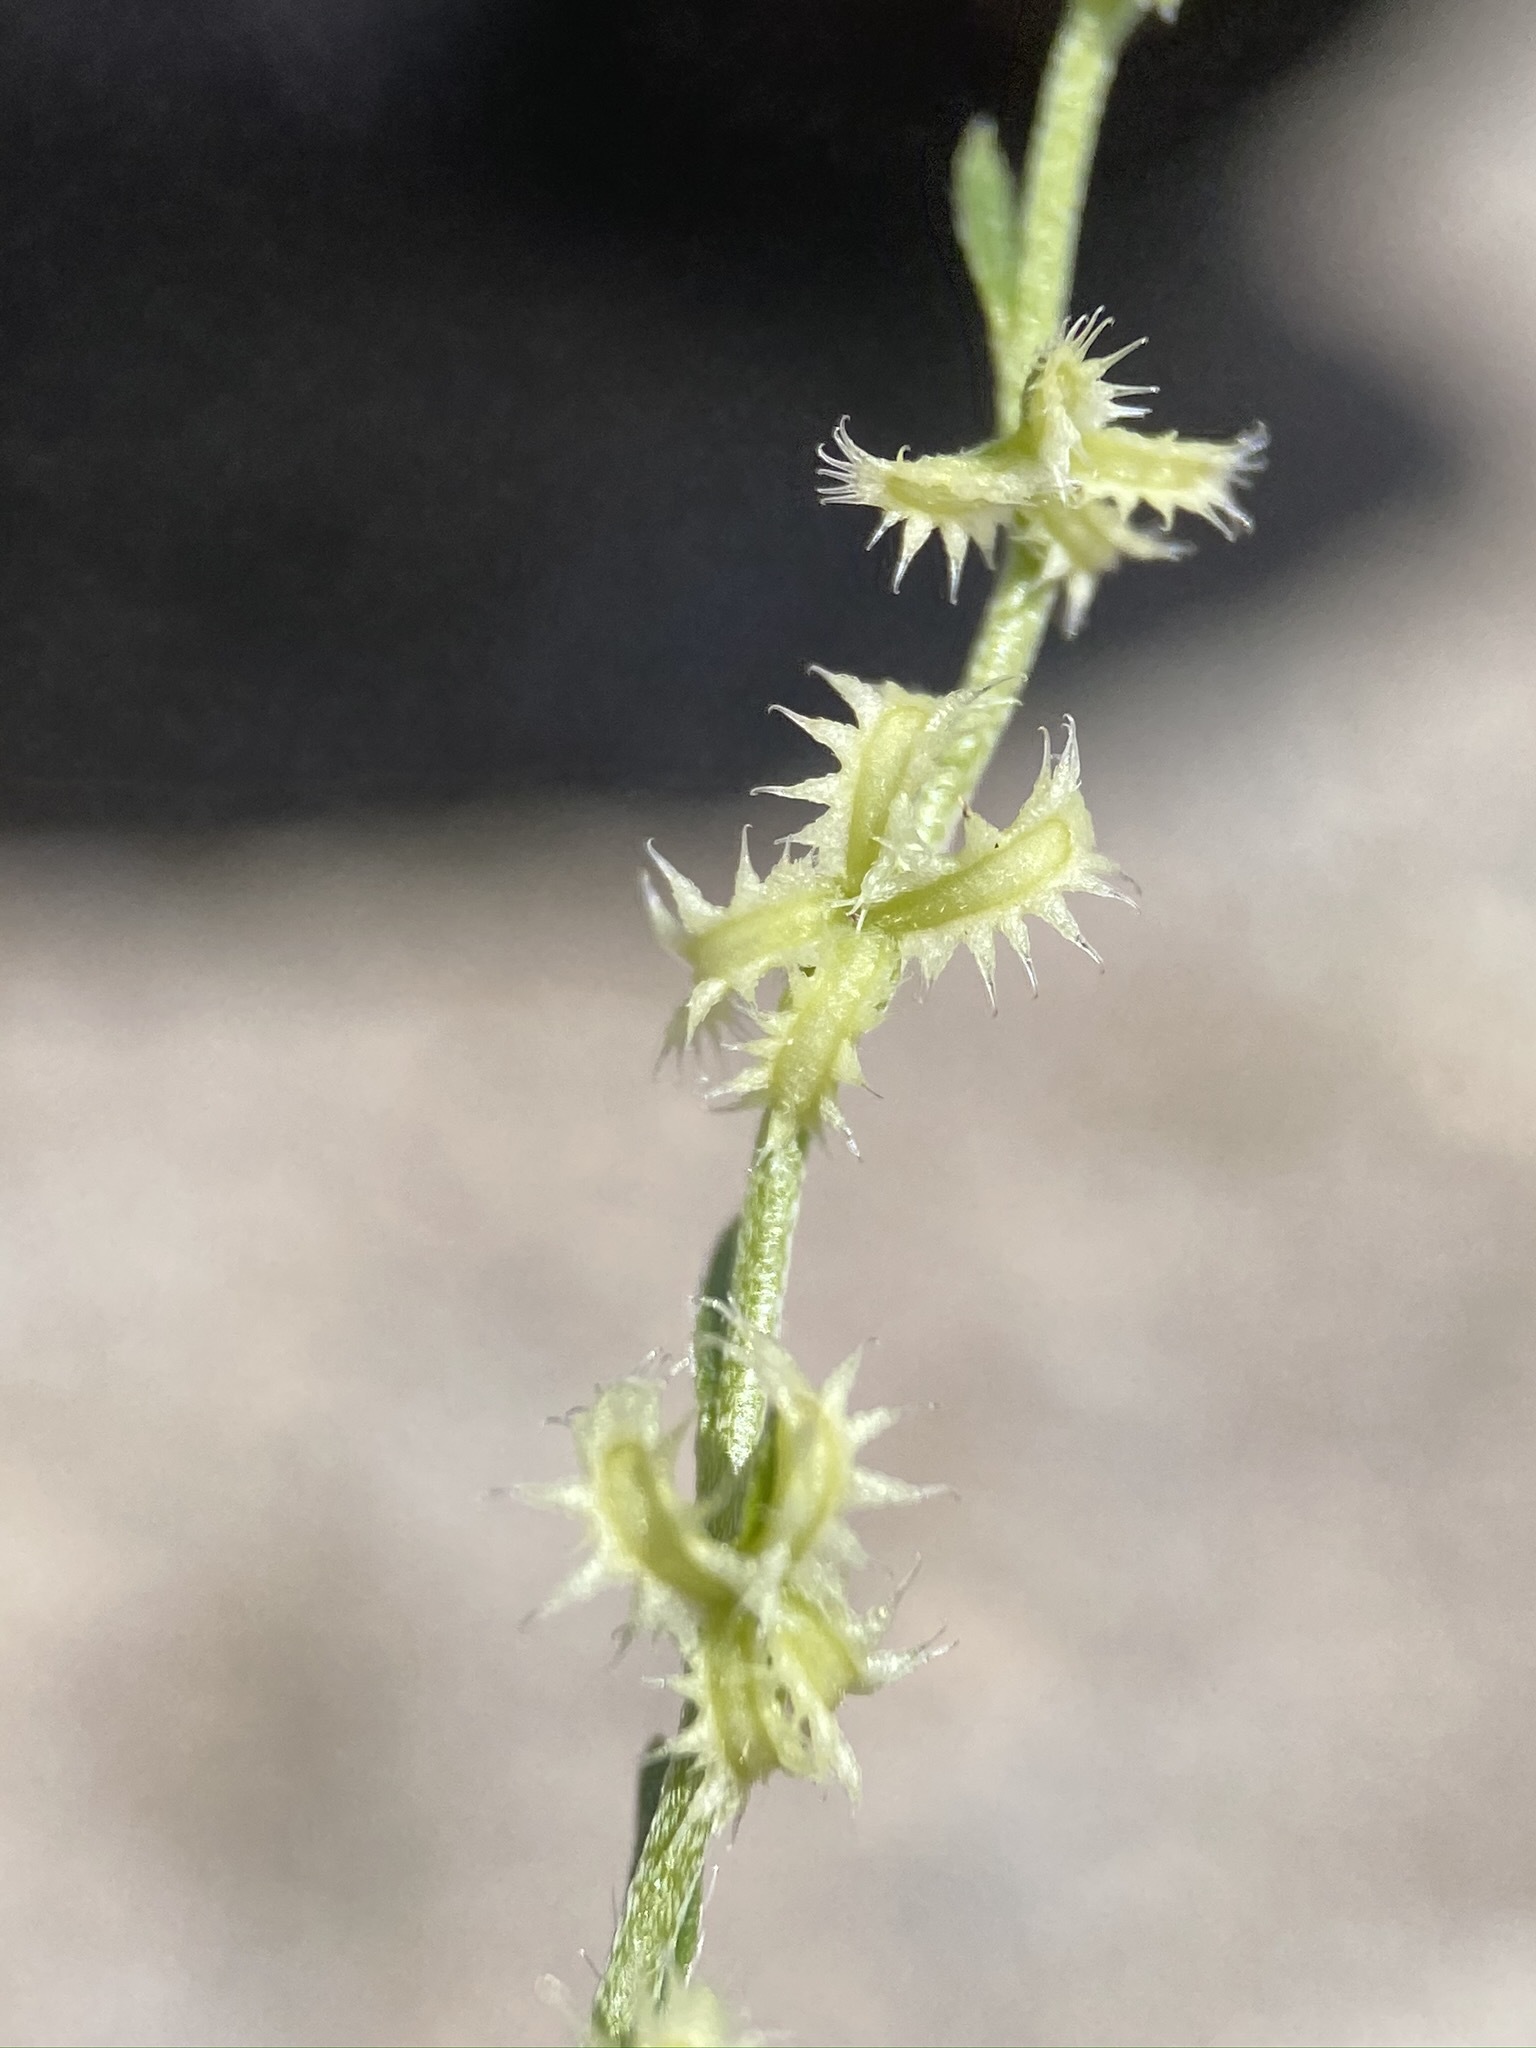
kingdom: Plantae
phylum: Tracheophyta
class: Magnoliopsida
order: Boraginales
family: Boraginaceae
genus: Pectocarya
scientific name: Pectocarya platycarpa
